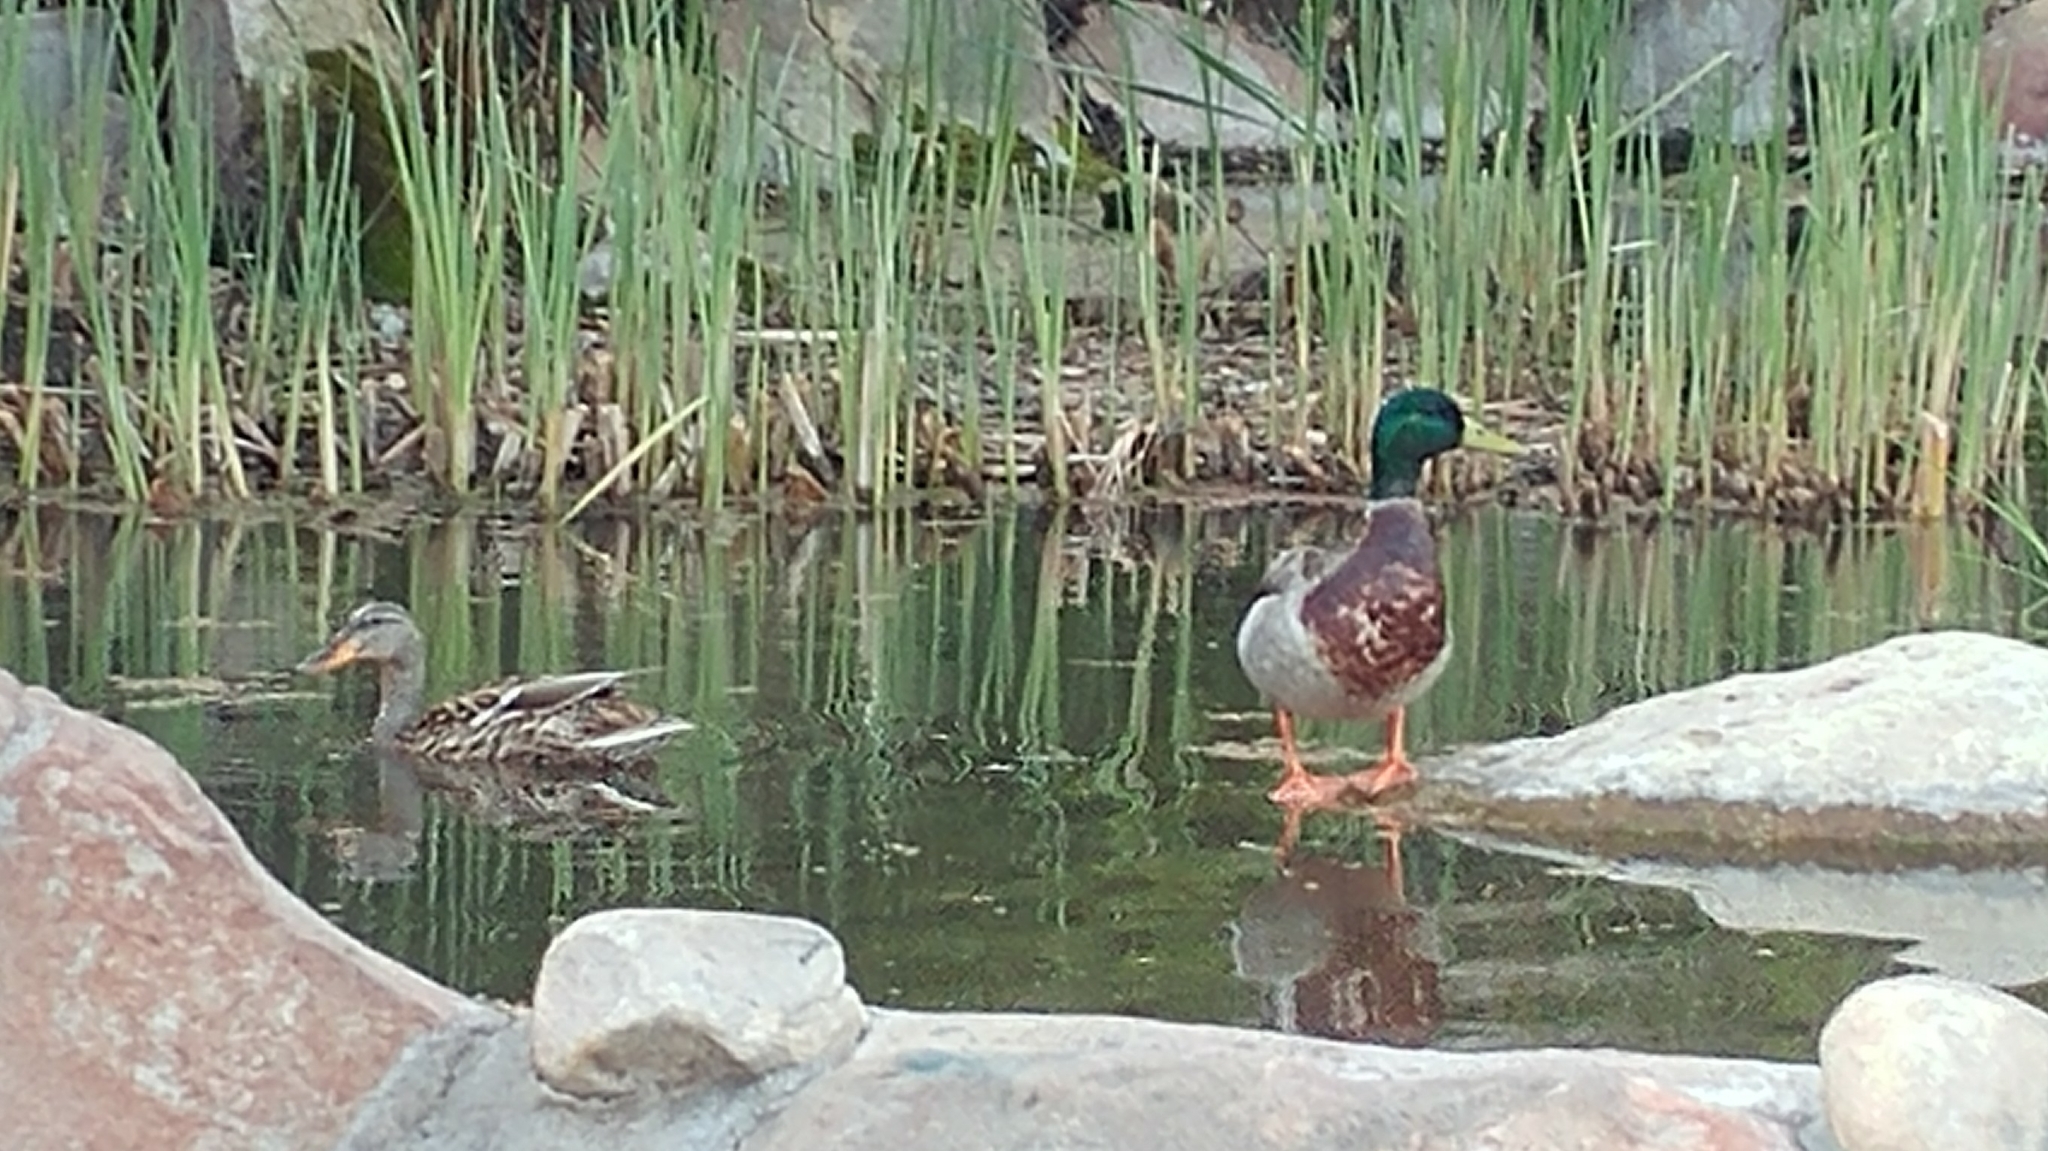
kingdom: Animalia
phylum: Chordata
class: Aves
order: Anseriformes
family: Anatidae
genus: Anas
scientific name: Anas platyrhynchos
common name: Mallard
